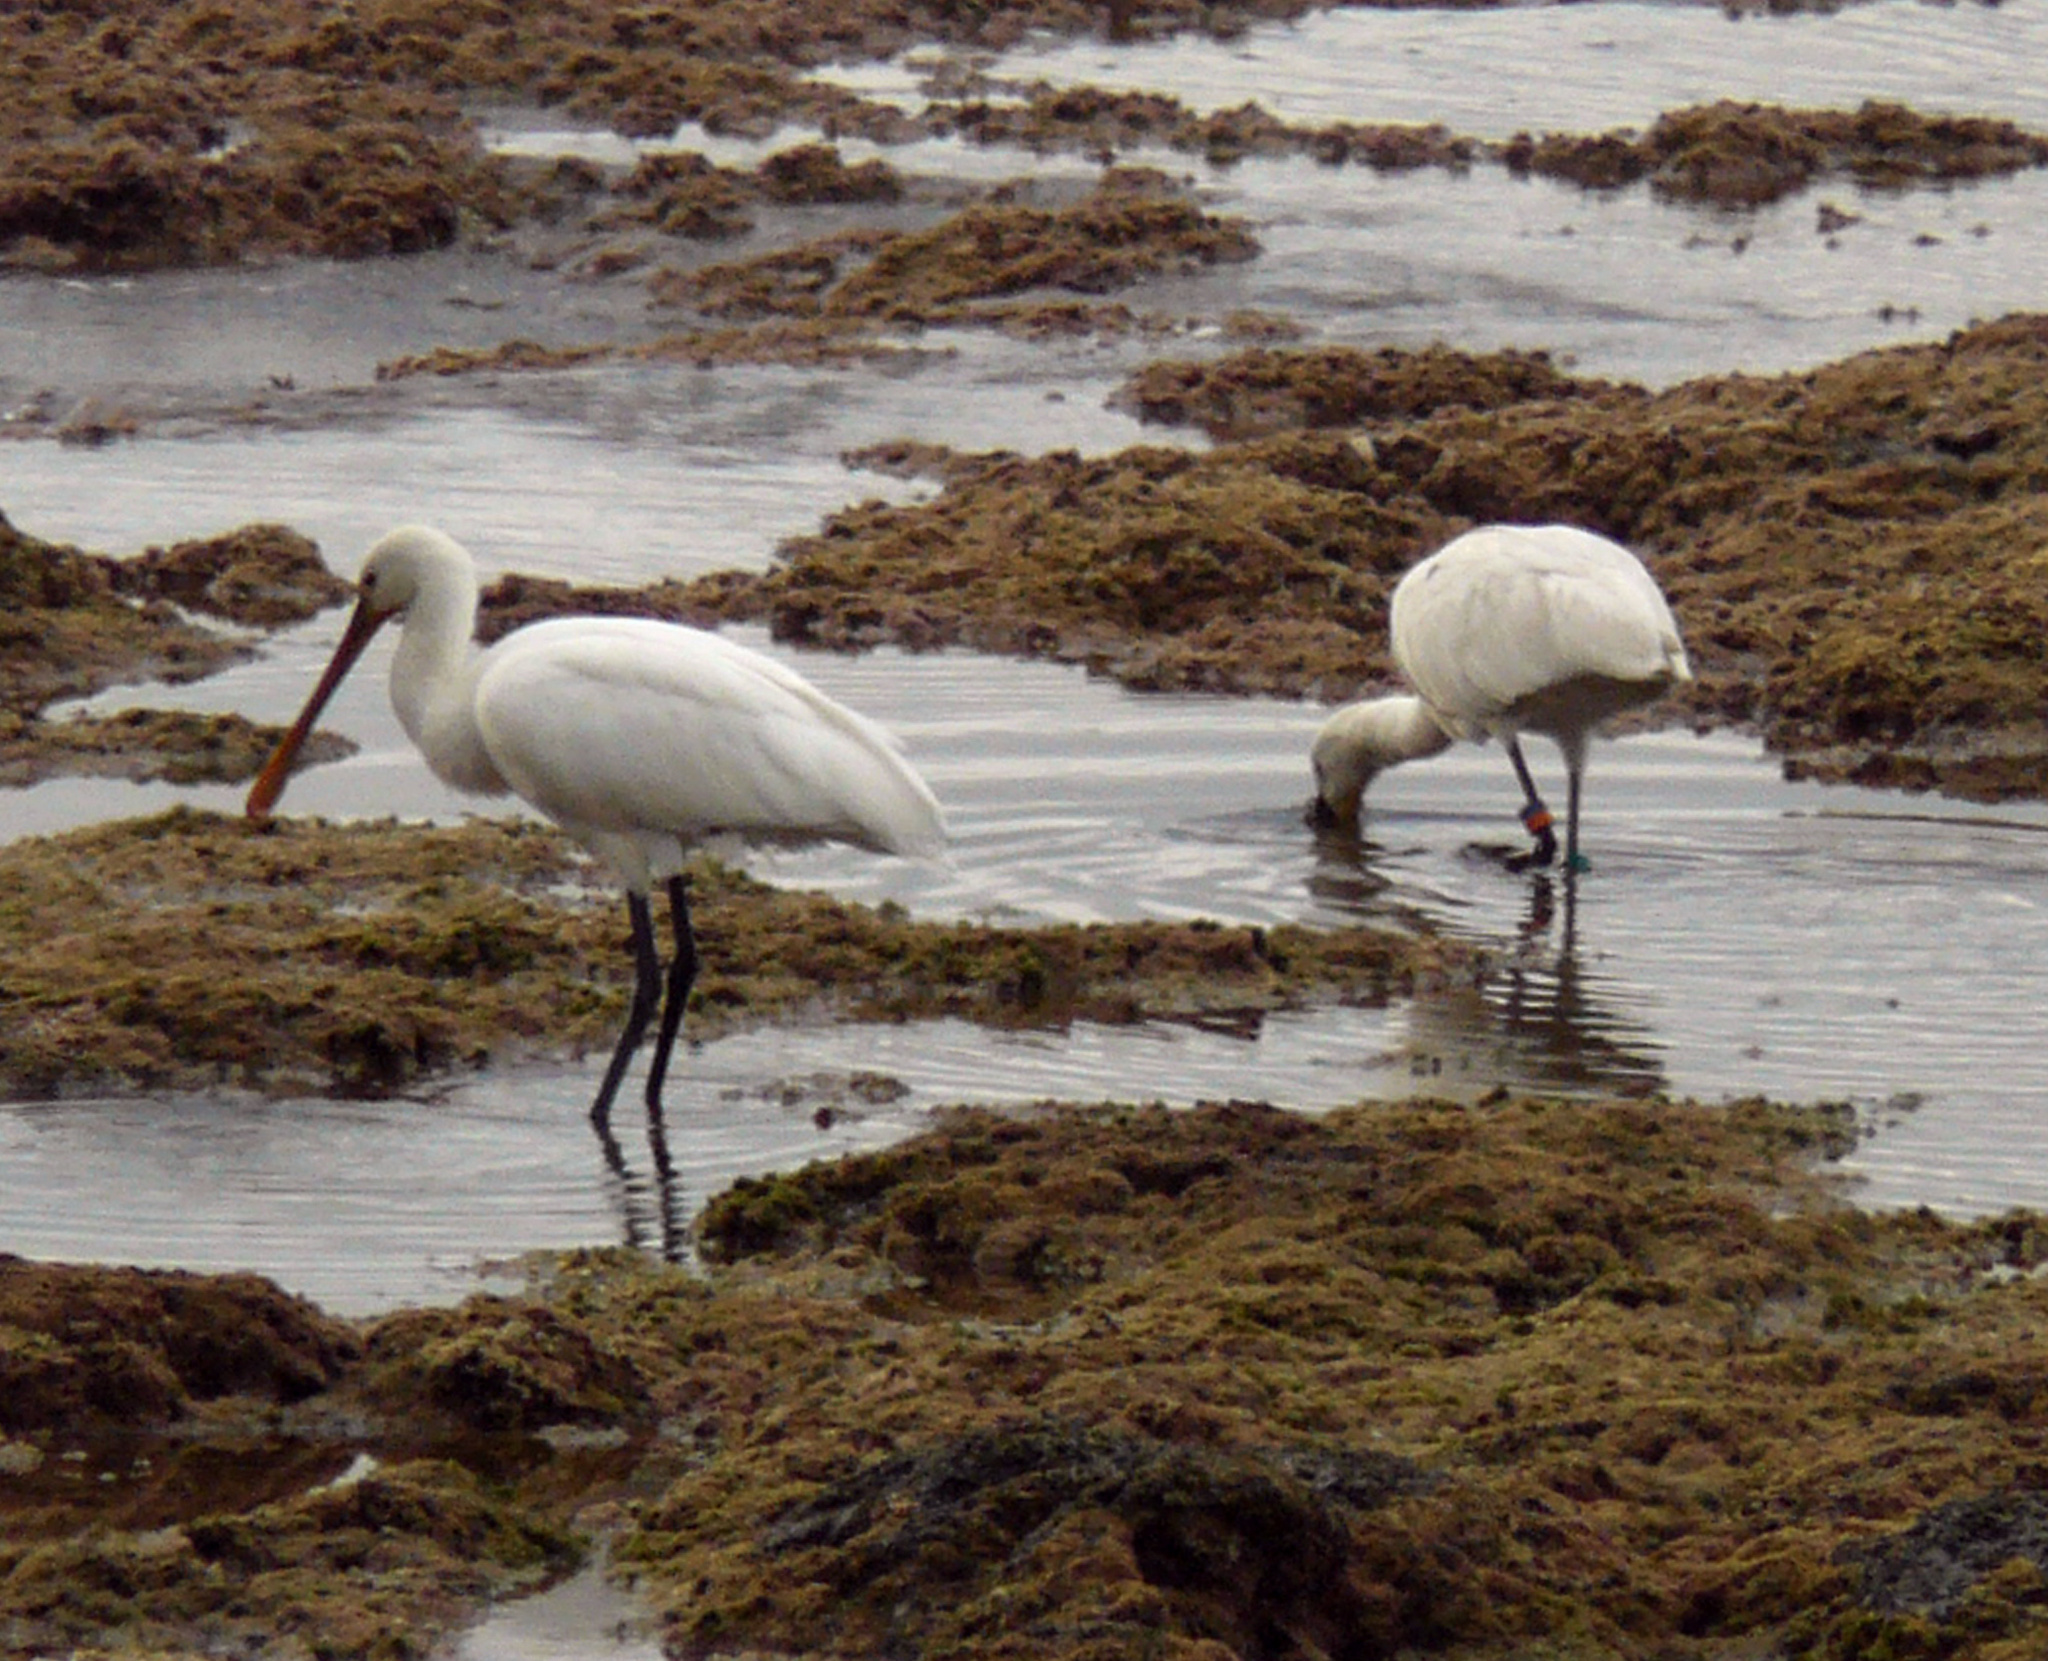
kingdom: Animalia
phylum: Chordata
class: Aves
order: Pelecaniformes
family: Threskiornithidae
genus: Platalea
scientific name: Platalea leucorodia
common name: Eurasian spoonbill
